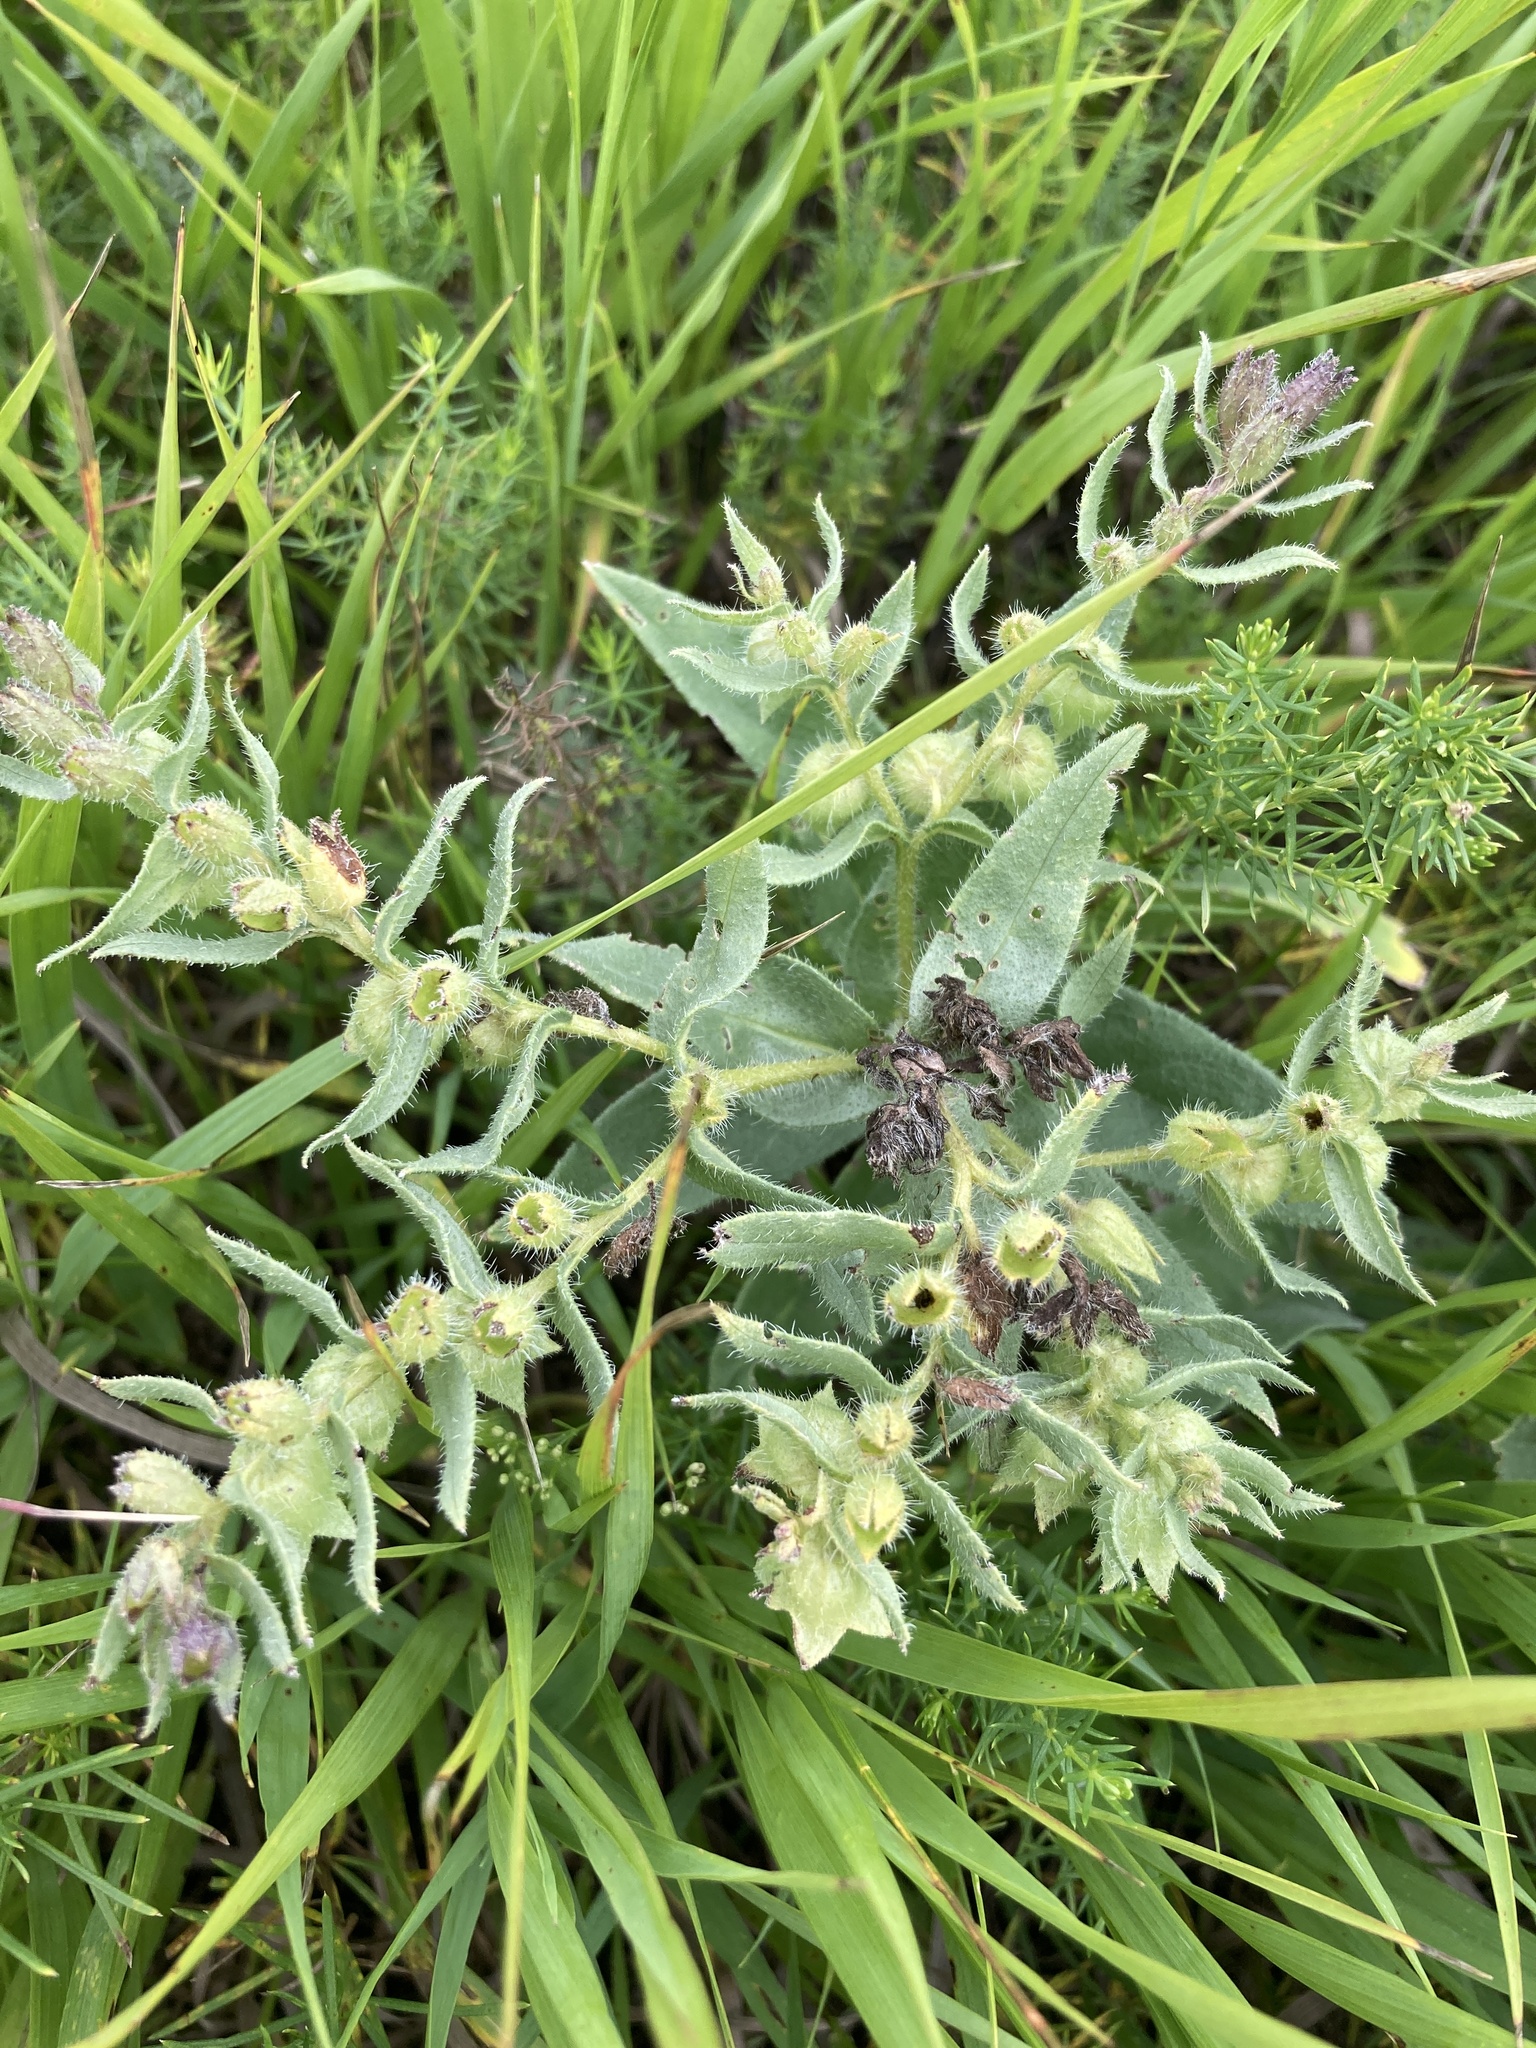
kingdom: Plantae
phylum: Tracheophyta
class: Magnoliopsida
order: Boraginales
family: Boraginaceae
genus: Nonea
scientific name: Nonea pulla
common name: Brown nonea
